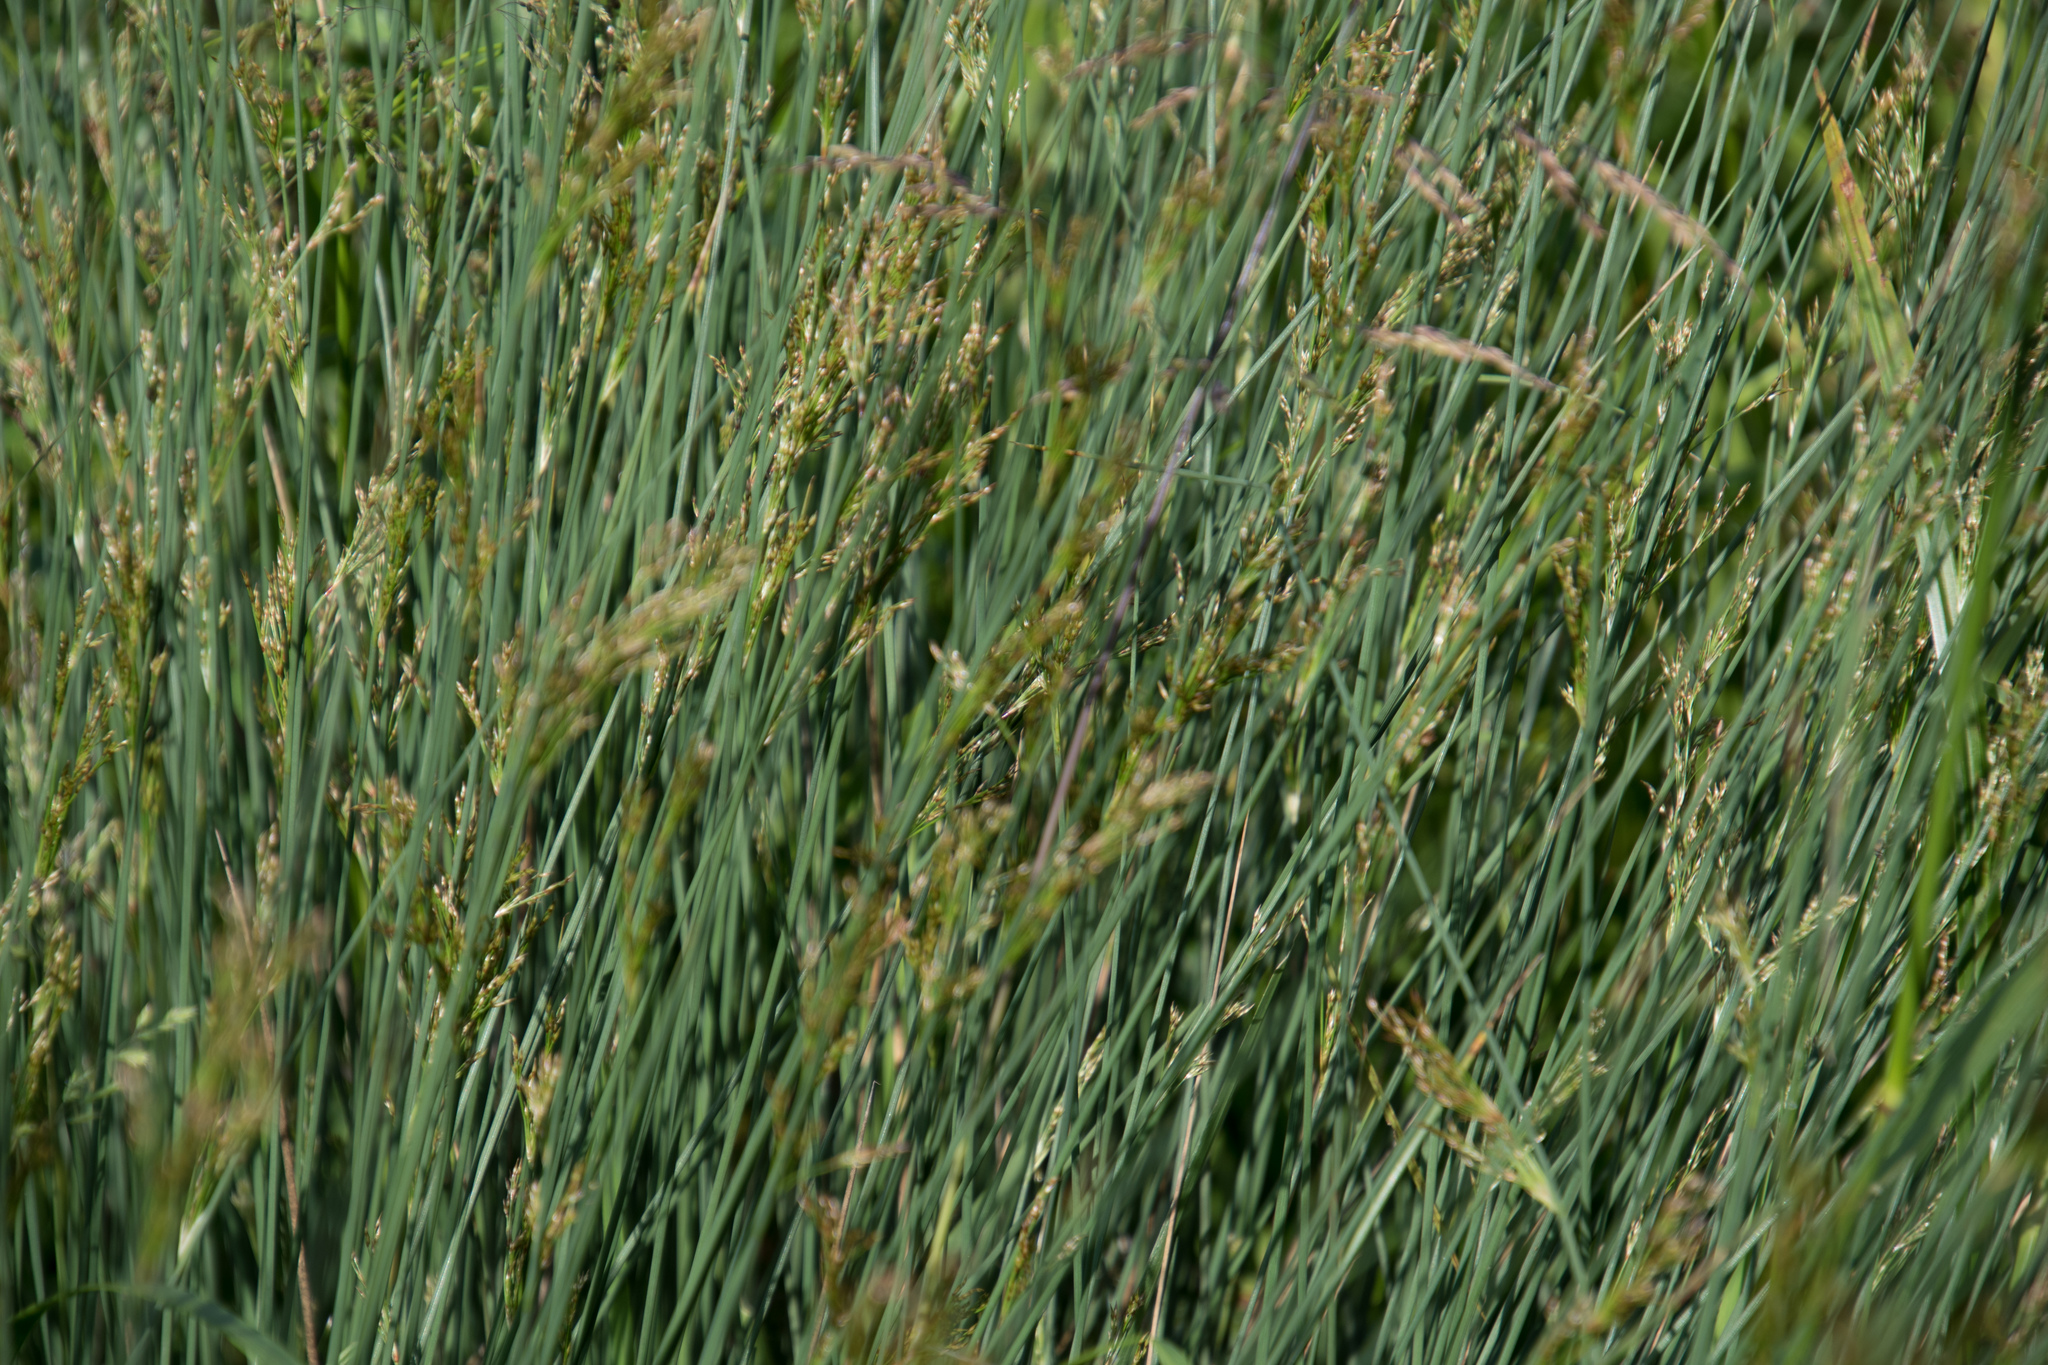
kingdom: Plantae
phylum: Tracheophyta
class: Liliopsida
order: Poales
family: Juncaceae
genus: Juncus
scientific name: Juncus inflexus
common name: Hard rush
